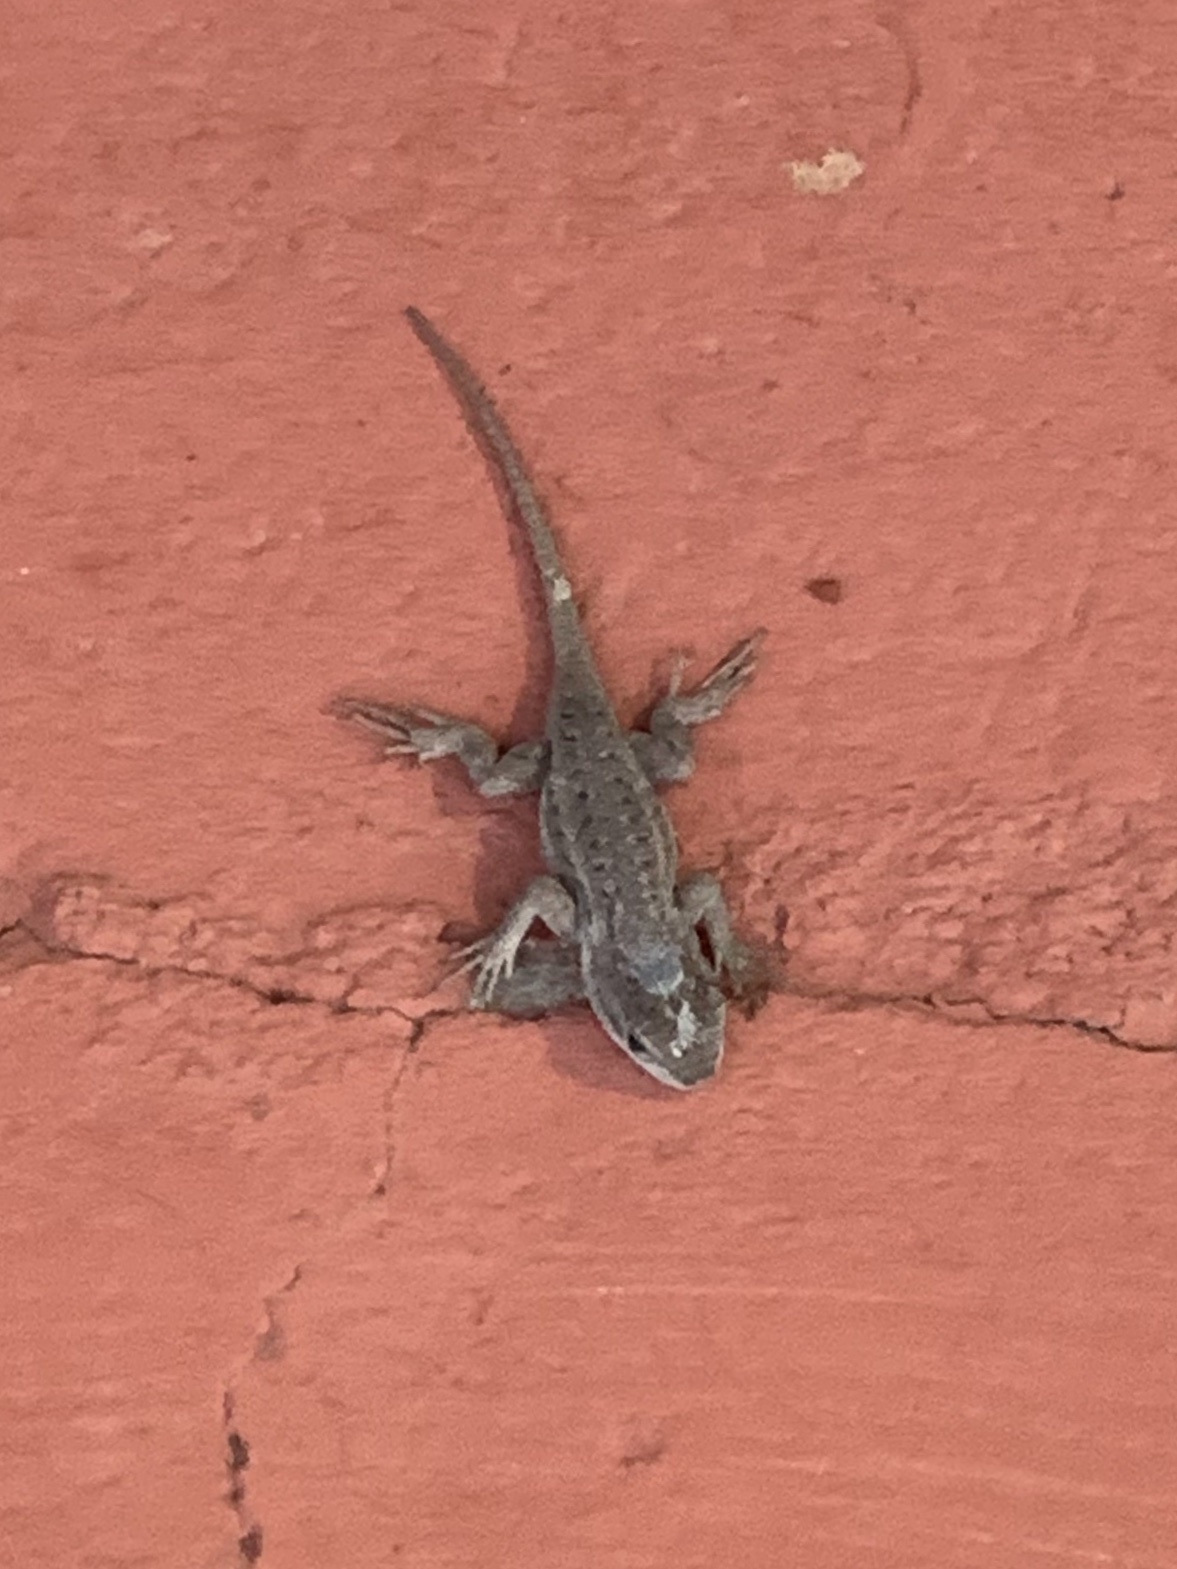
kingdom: Animalia
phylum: Chordata
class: Squamata
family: Phrynosomatidae
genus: Sceloporus
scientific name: Sceloporus cowlesi
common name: White sands prairie lizard
